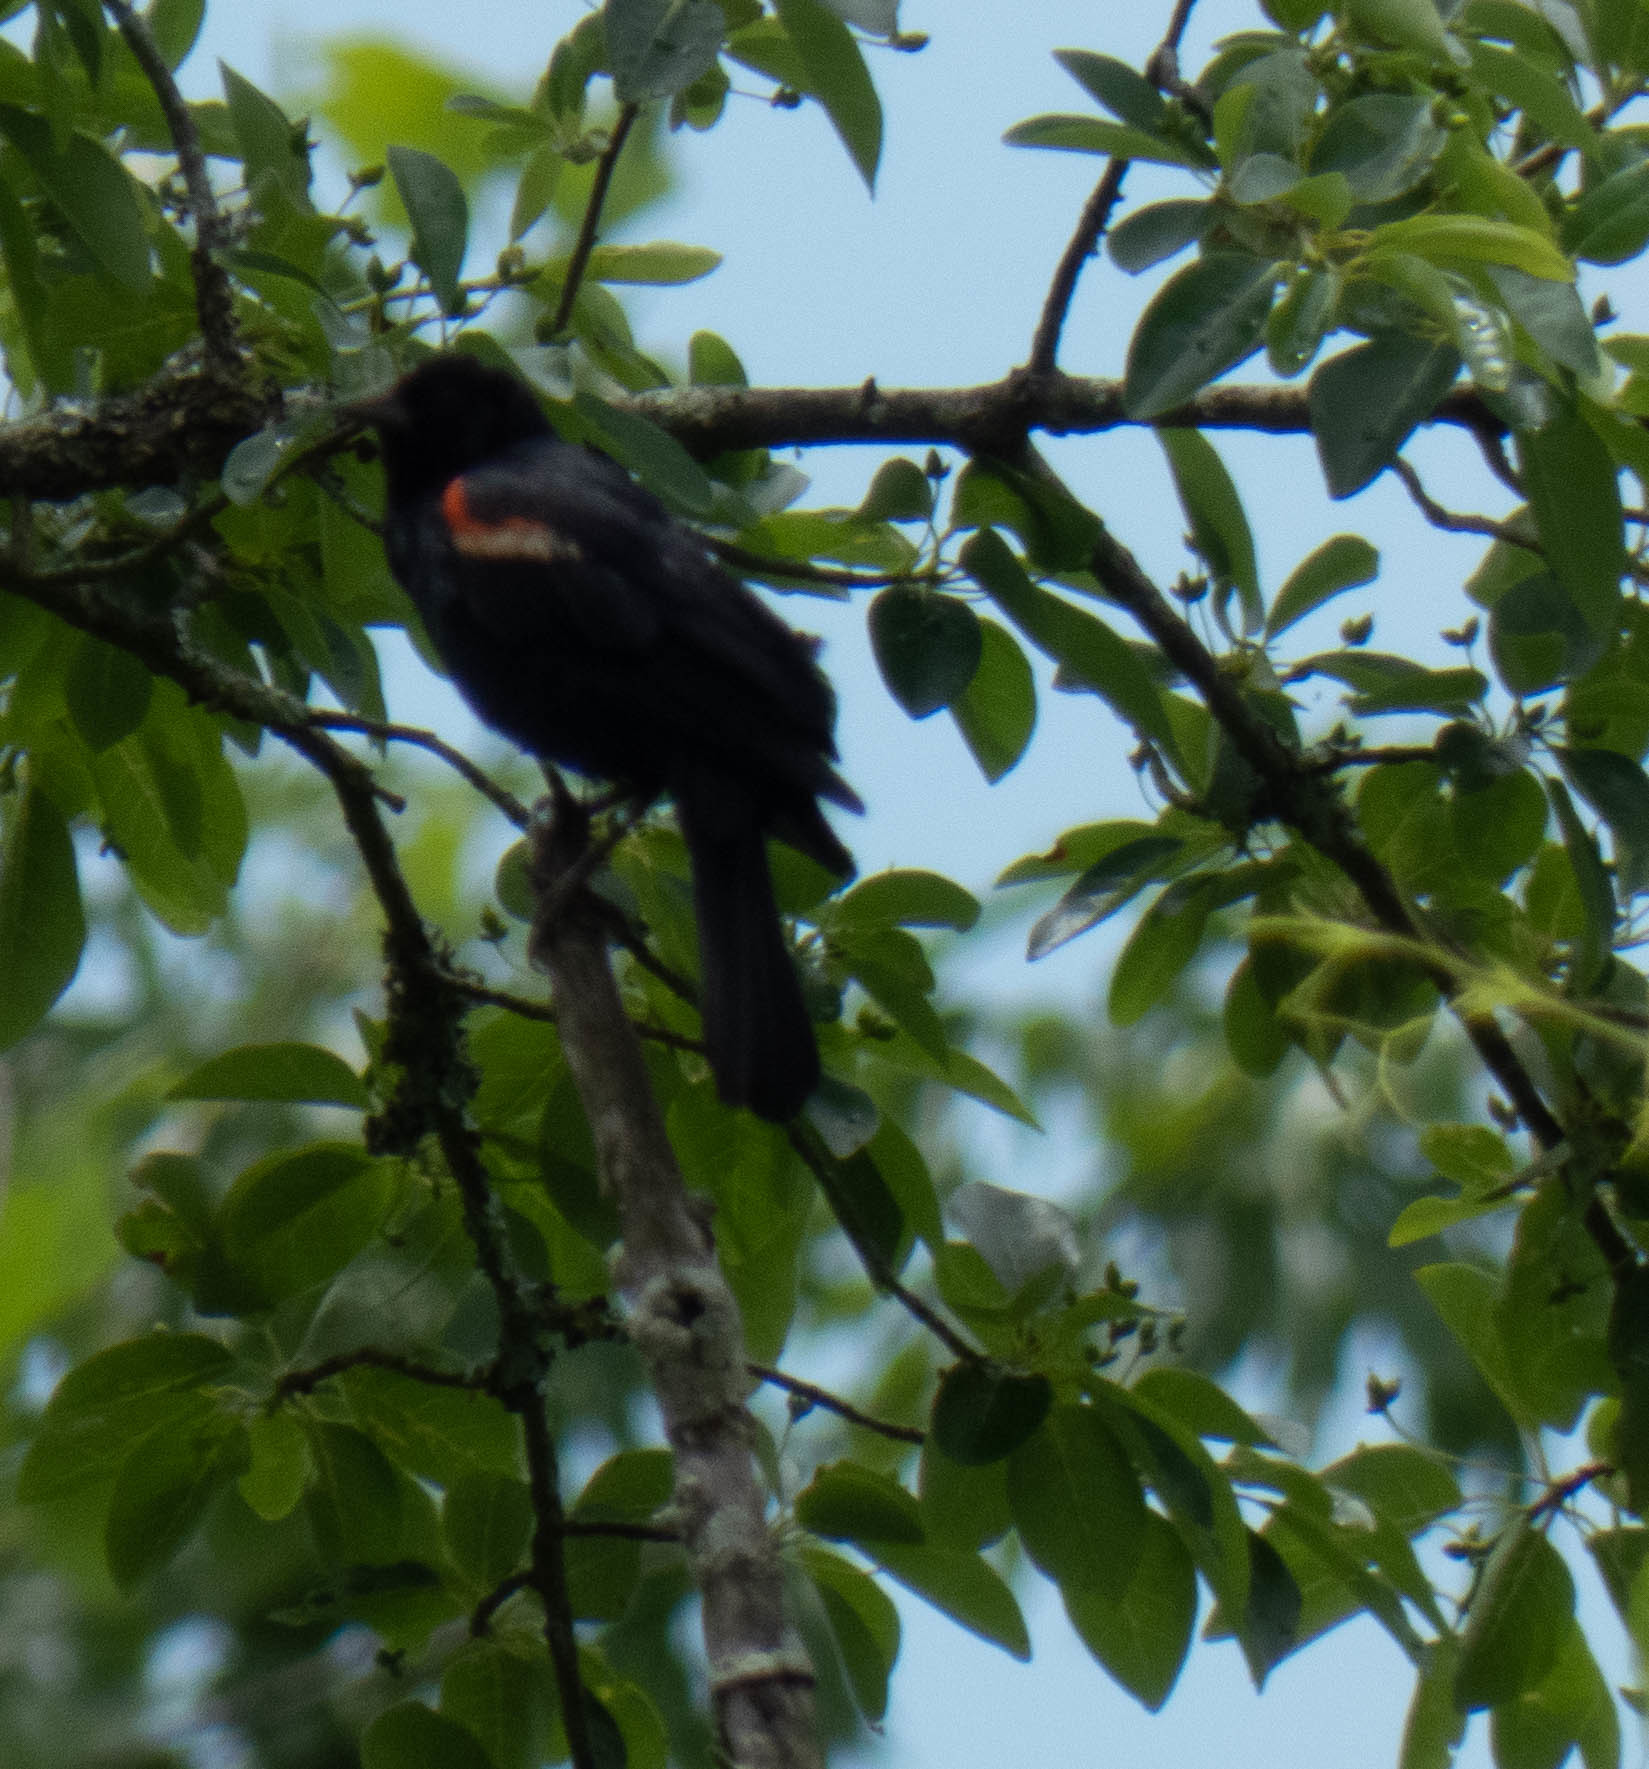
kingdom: Animalia
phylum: Chordata
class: Aves
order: Passeriformes
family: Icteridae
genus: Agelaius
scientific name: Agelaius phoeniceus
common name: Red-winged blackbird
